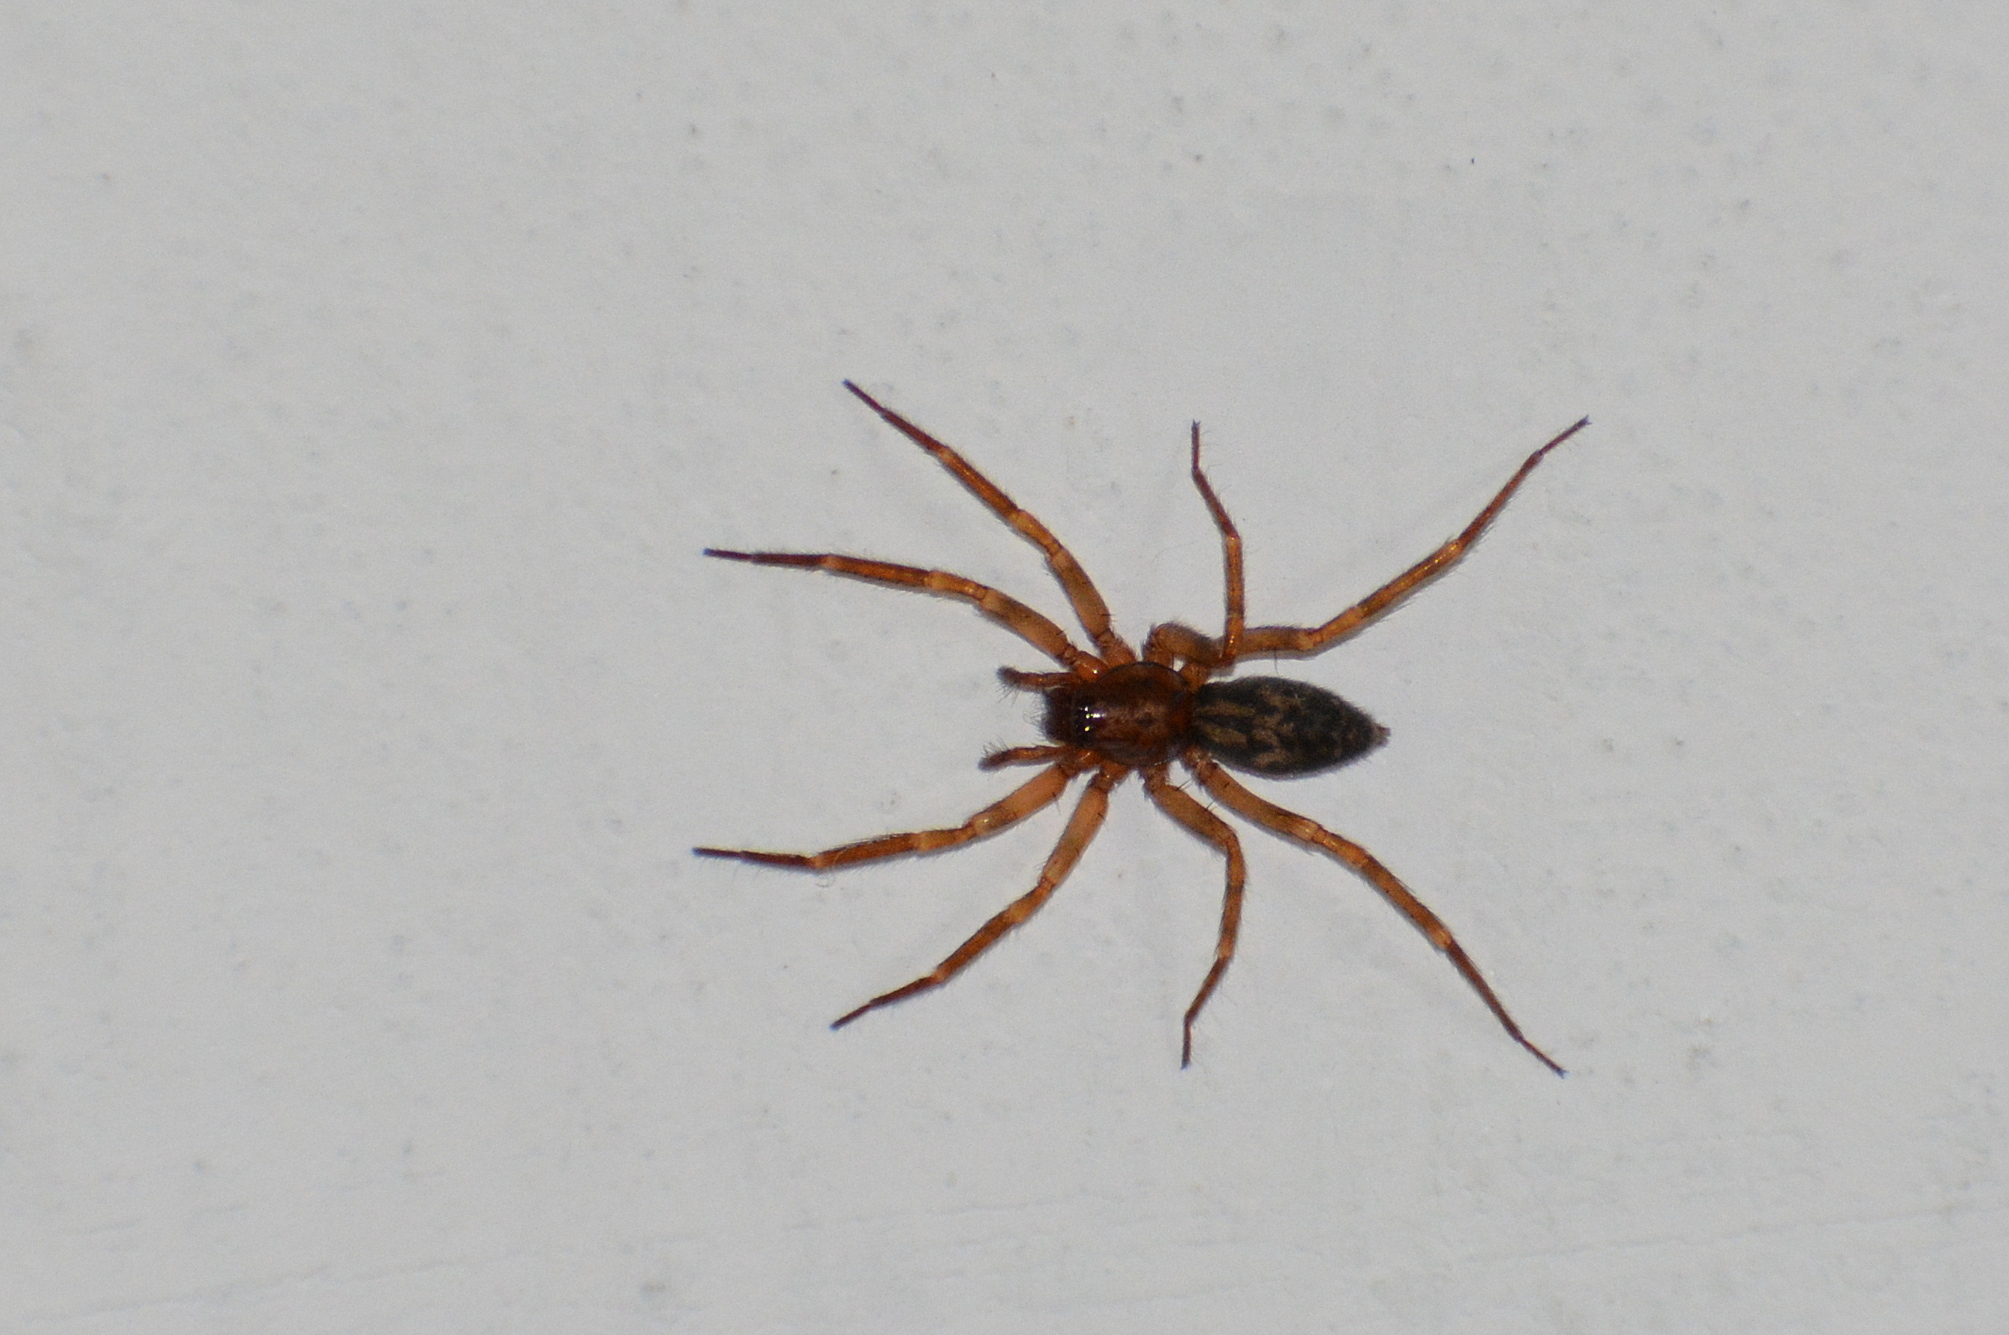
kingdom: Animalia
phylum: Arthropoda
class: Arachnida
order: Araneae
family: Liocranidae
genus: Liocranum
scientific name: Liocranum rupicola
